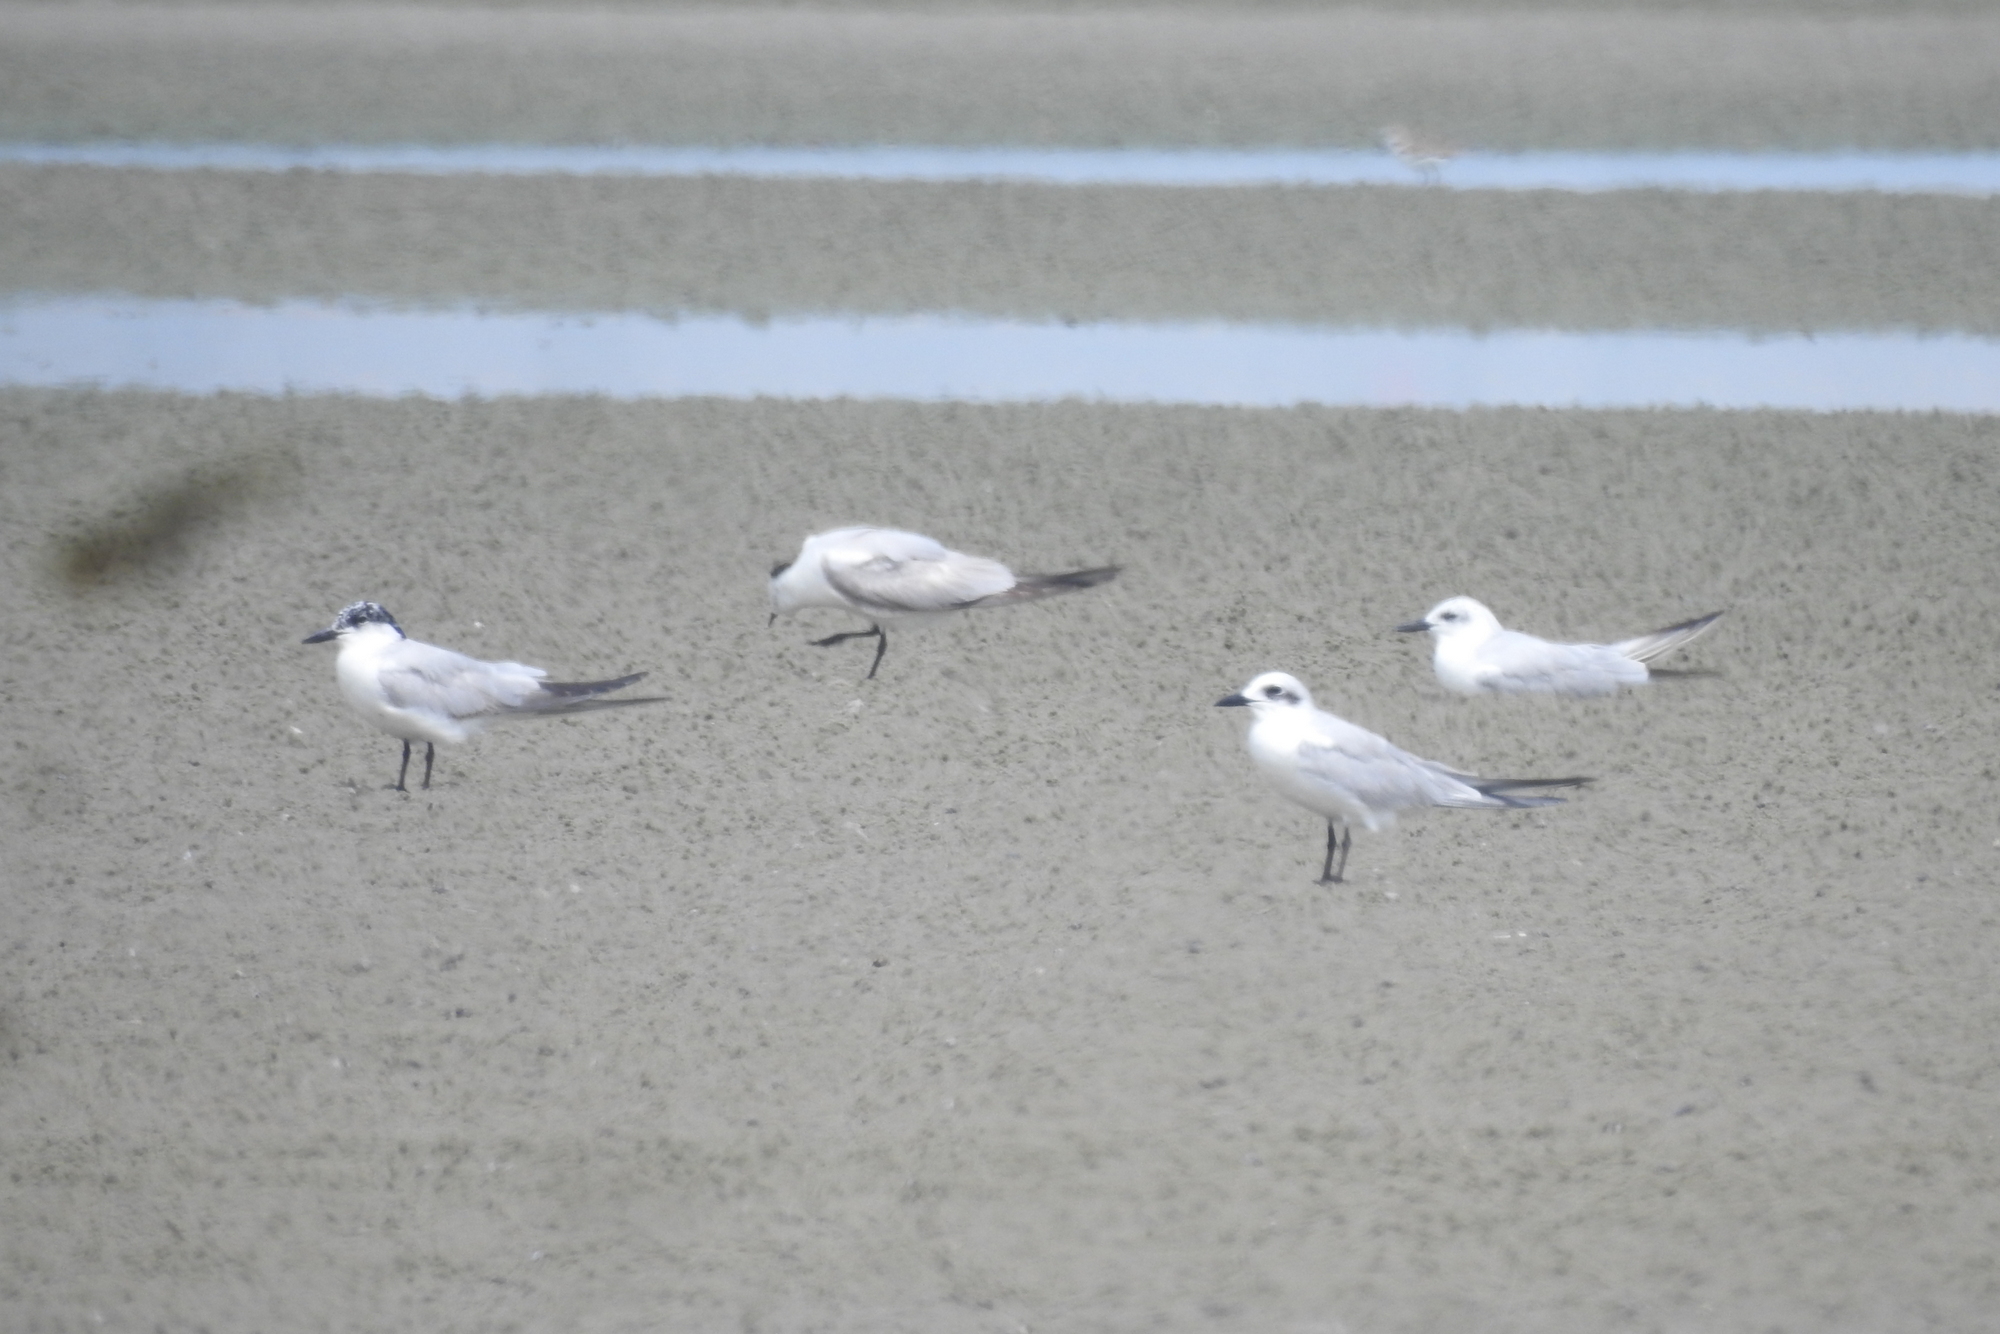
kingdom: Animalia
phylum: Chordata
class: Aves
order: Charadriiformes
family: Laridae
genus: Gelochelidon
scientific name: Gelochelidon nilotica
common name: Gull-billed tern
